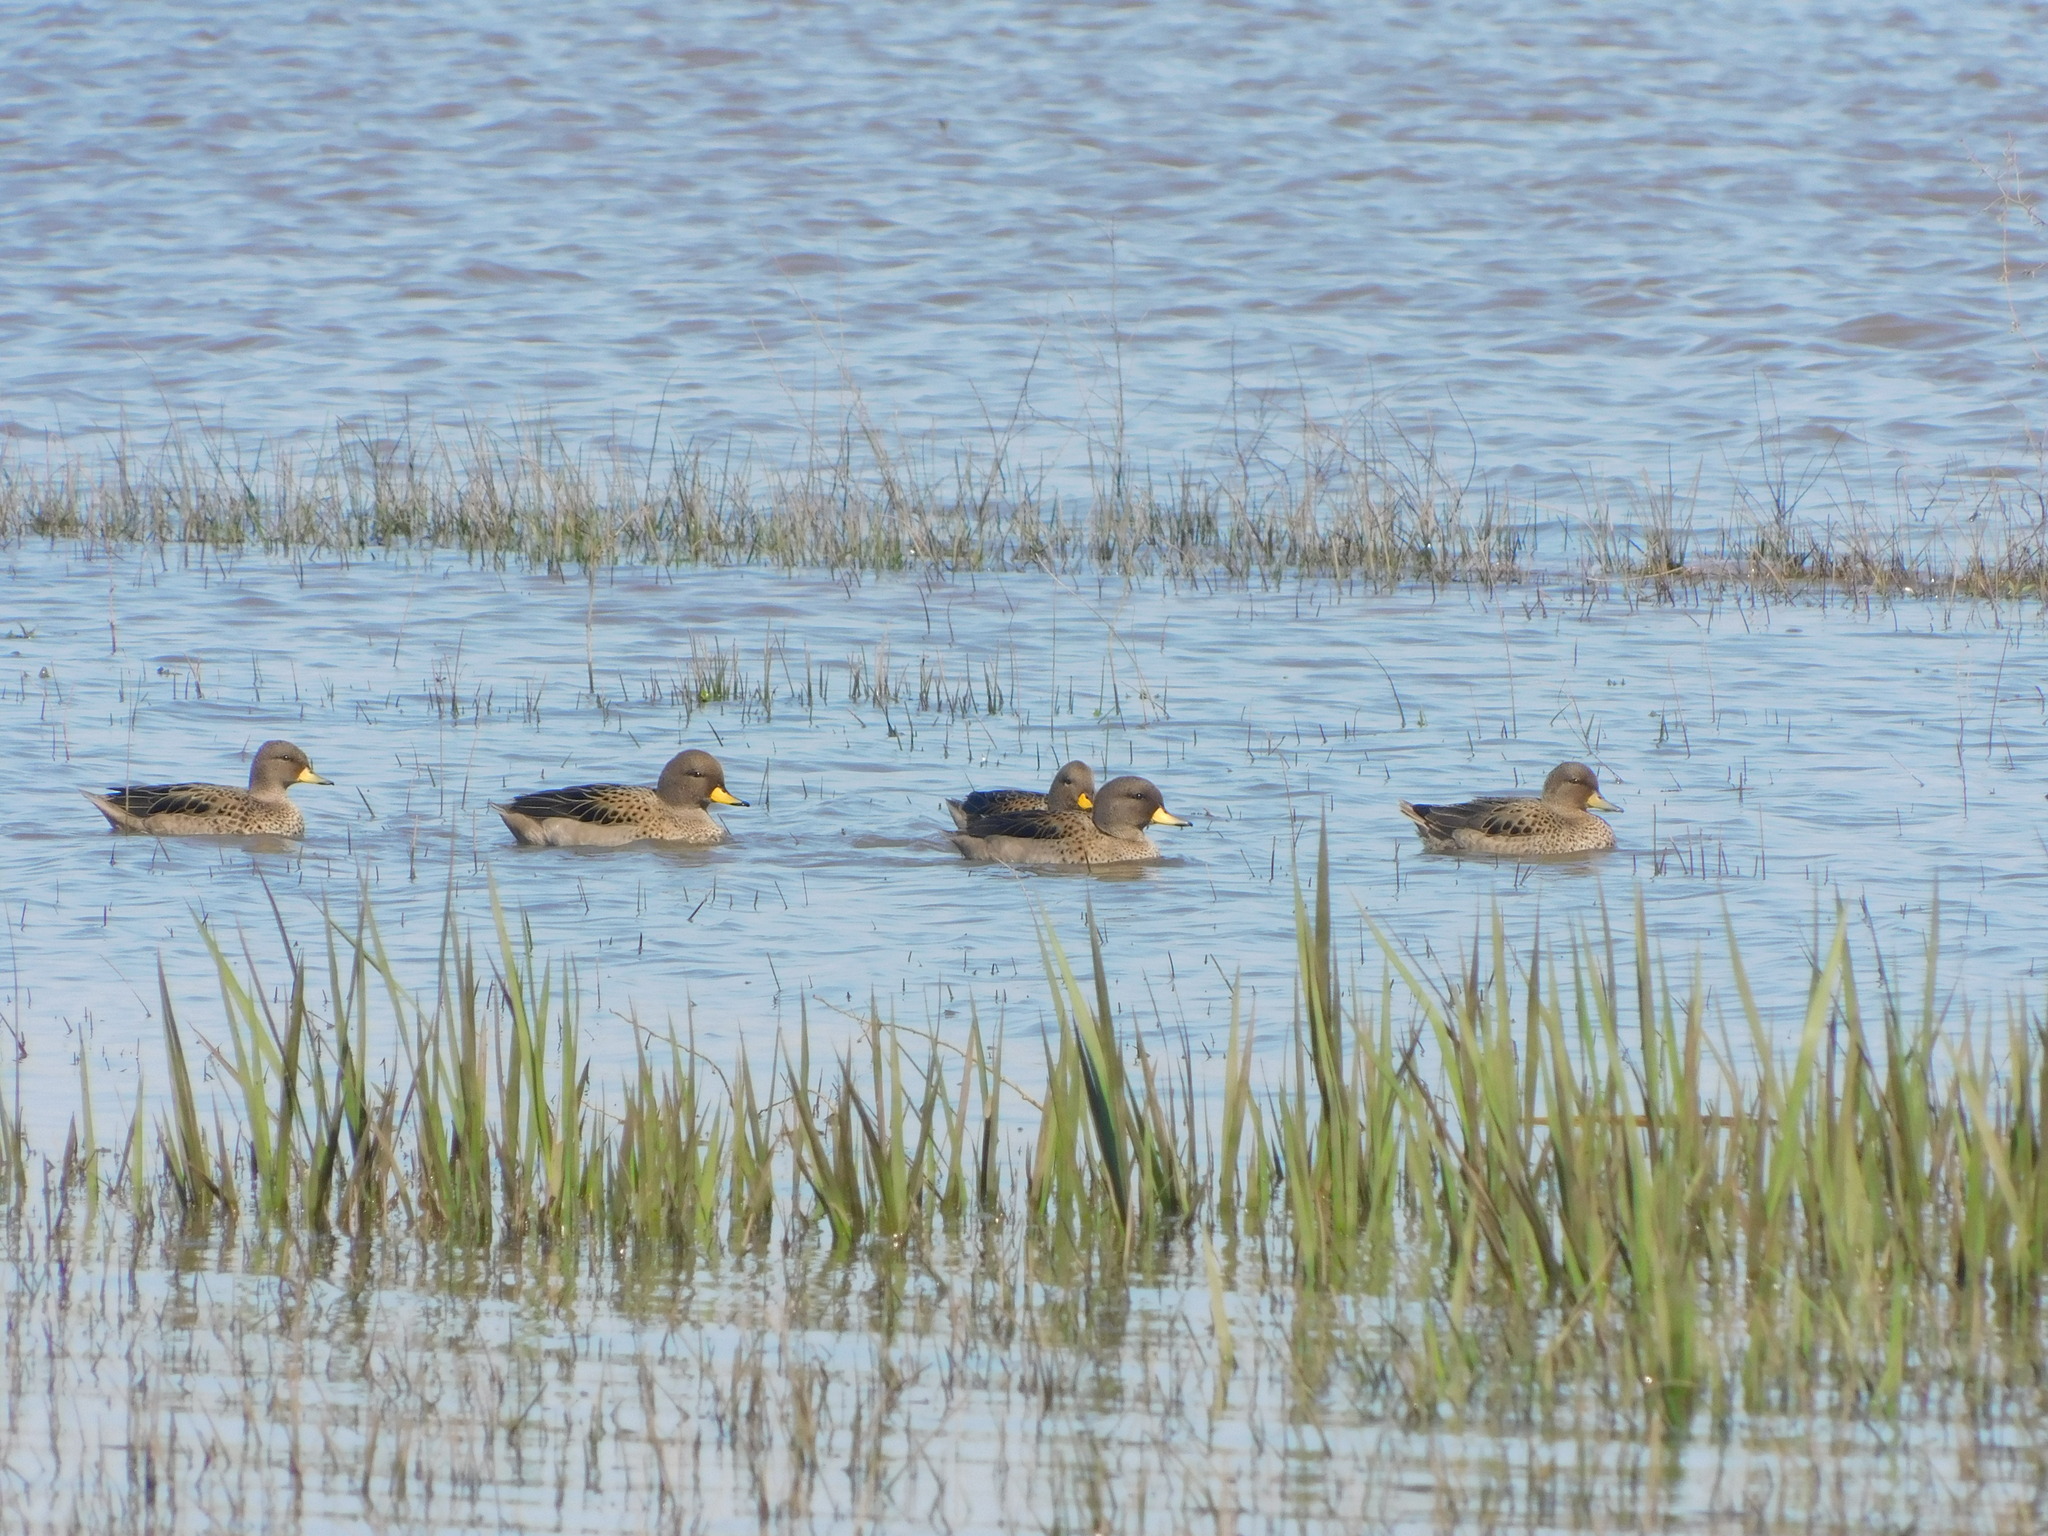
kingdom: Animalia
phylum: Chordata
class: Aves
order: Anseriformes
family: Anatidae
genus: Anas
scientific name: Anas flavirostris
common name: Yellow-billed teal
